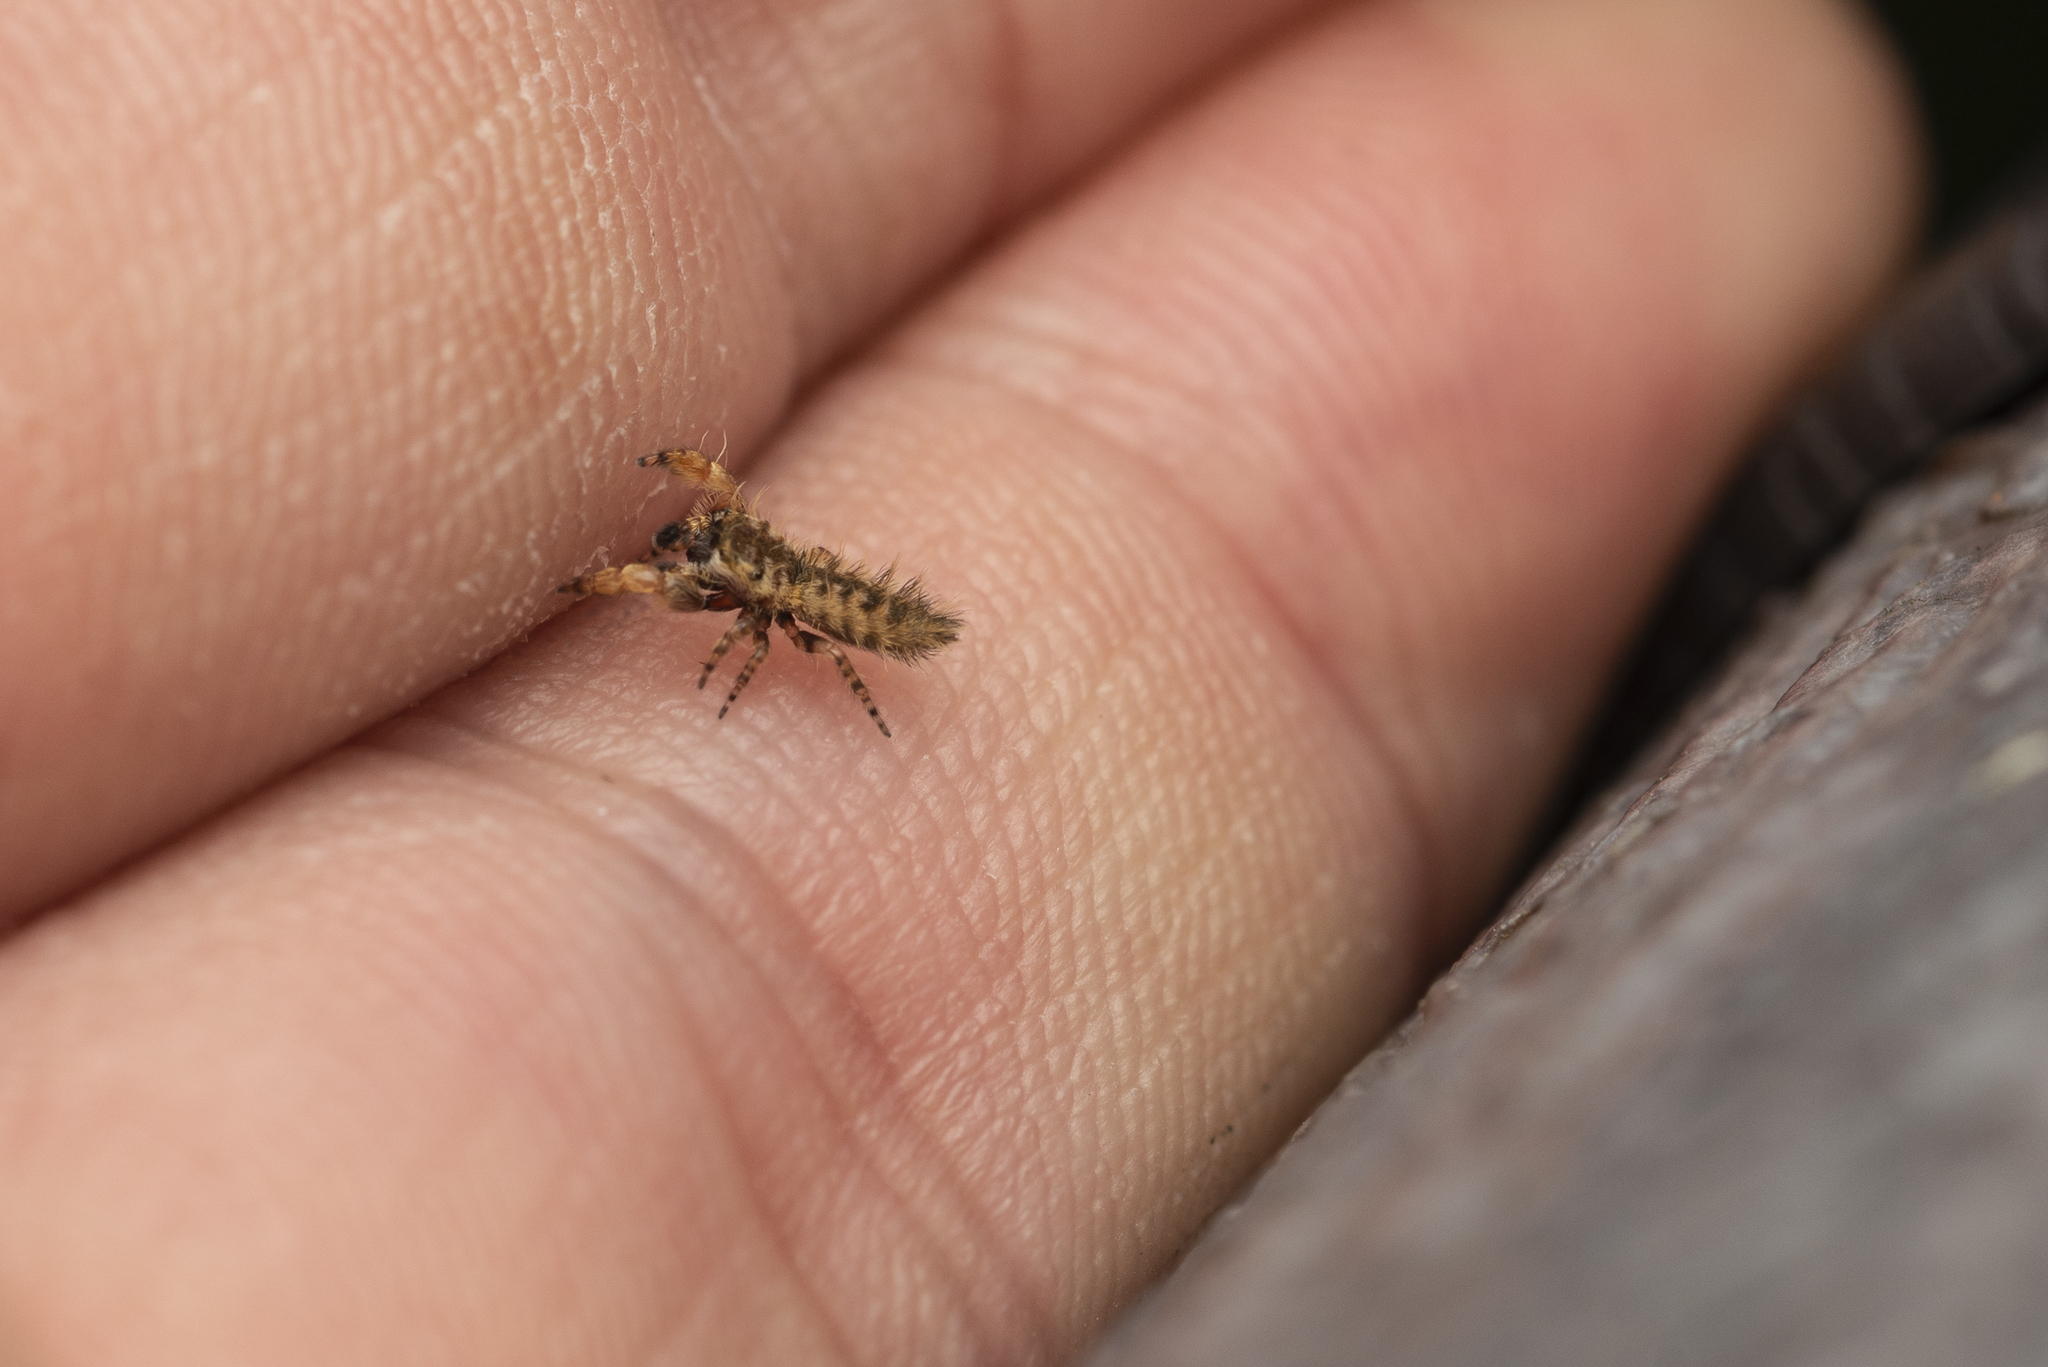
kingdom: Animalia
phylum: Arthropoda
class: Arachnida
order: Araneae
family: Salticidae
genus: Uroballus
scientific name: Uroballus carlei
